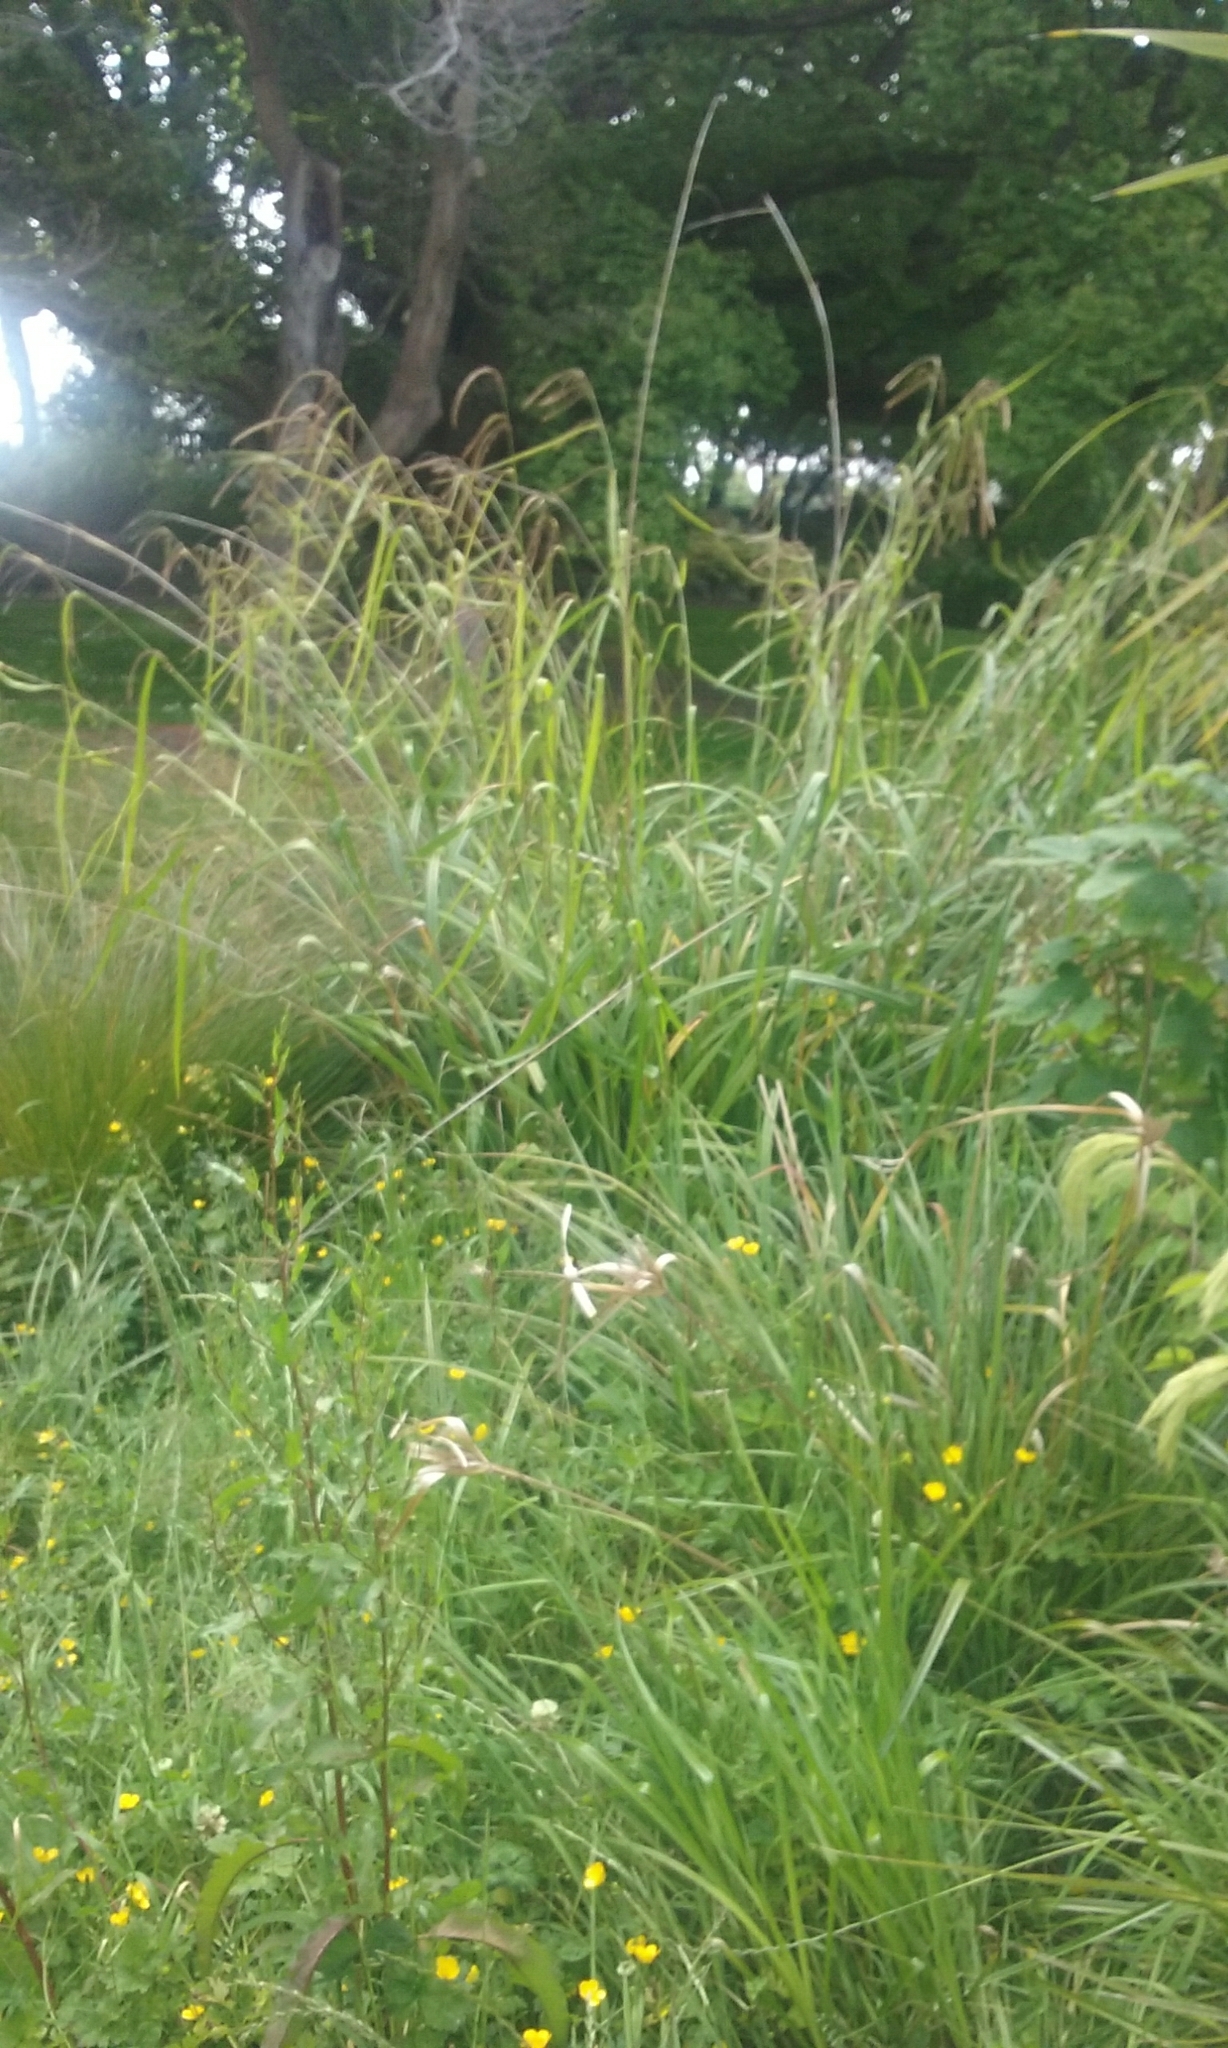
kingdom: Plantae
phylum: Tracheophyta
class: Liliopsida
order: Poales
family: Cyperaceae
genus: Carex
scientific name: Carex pendula
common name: Pendulous sedge
